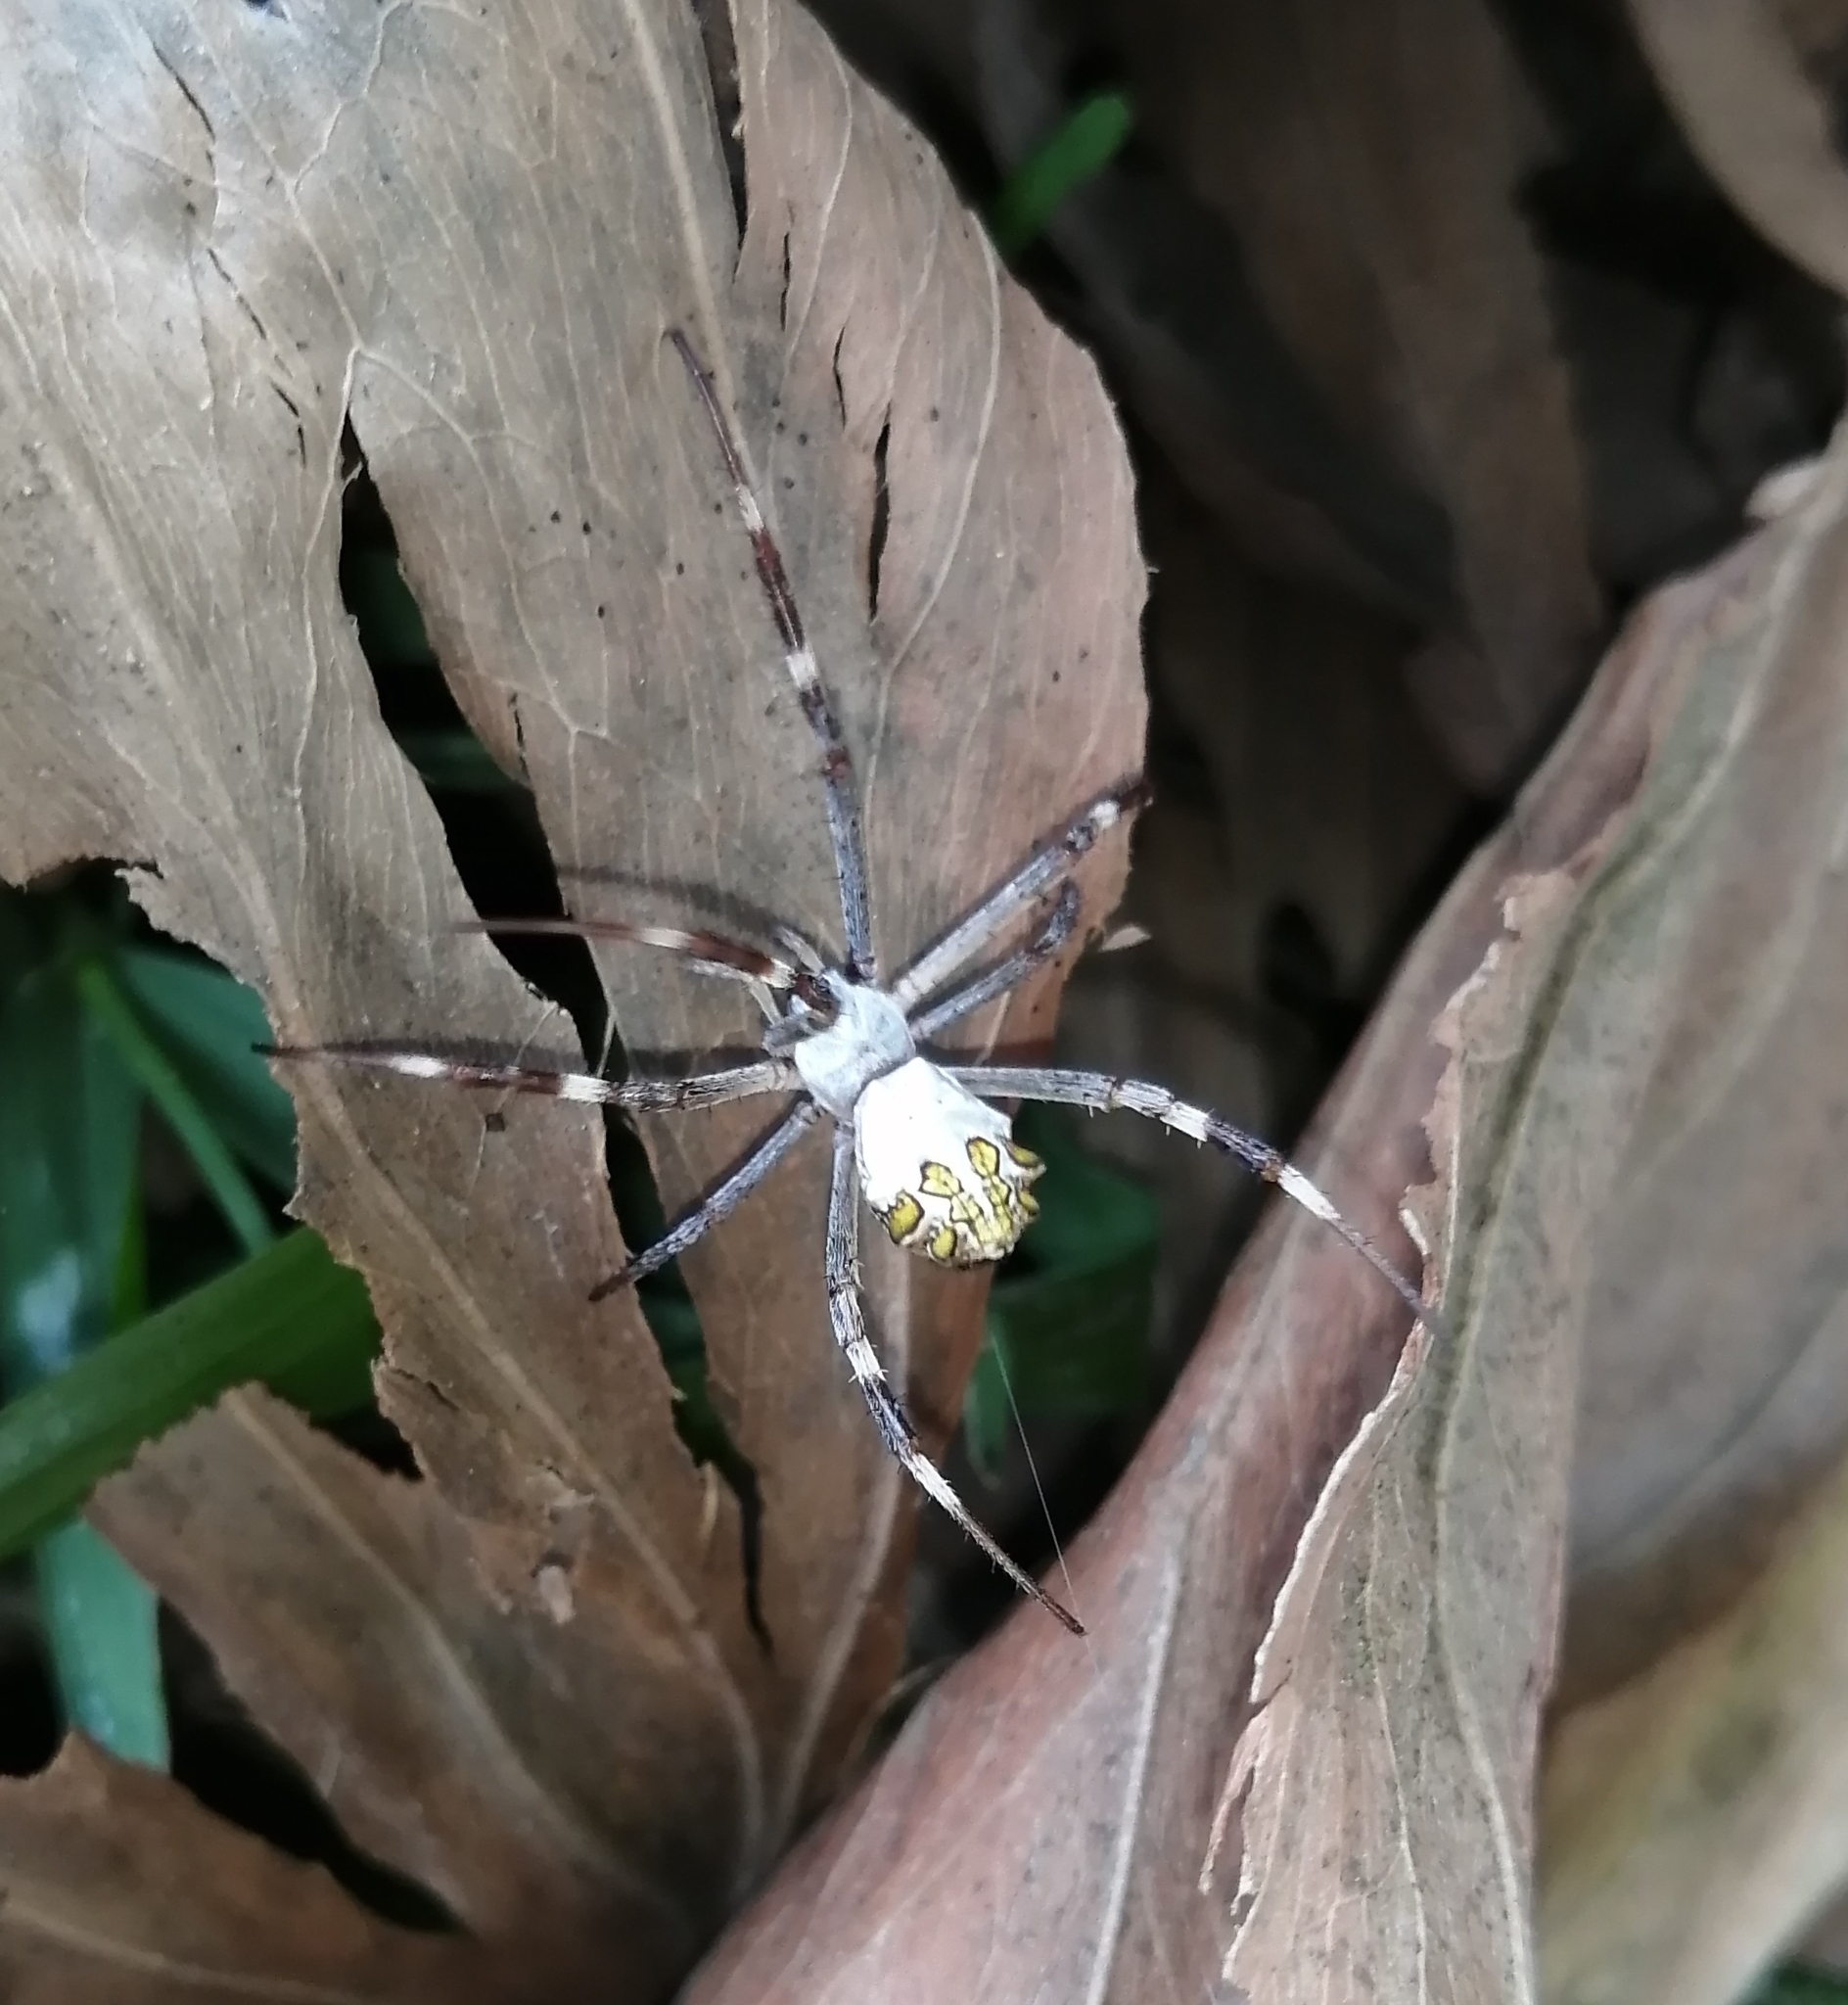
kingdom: Animalia
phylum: Arthropoda
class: Arachnida
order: Araneae
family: Araneidae
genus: Argiope
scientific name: Argiope argentata
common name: Orb weavers
